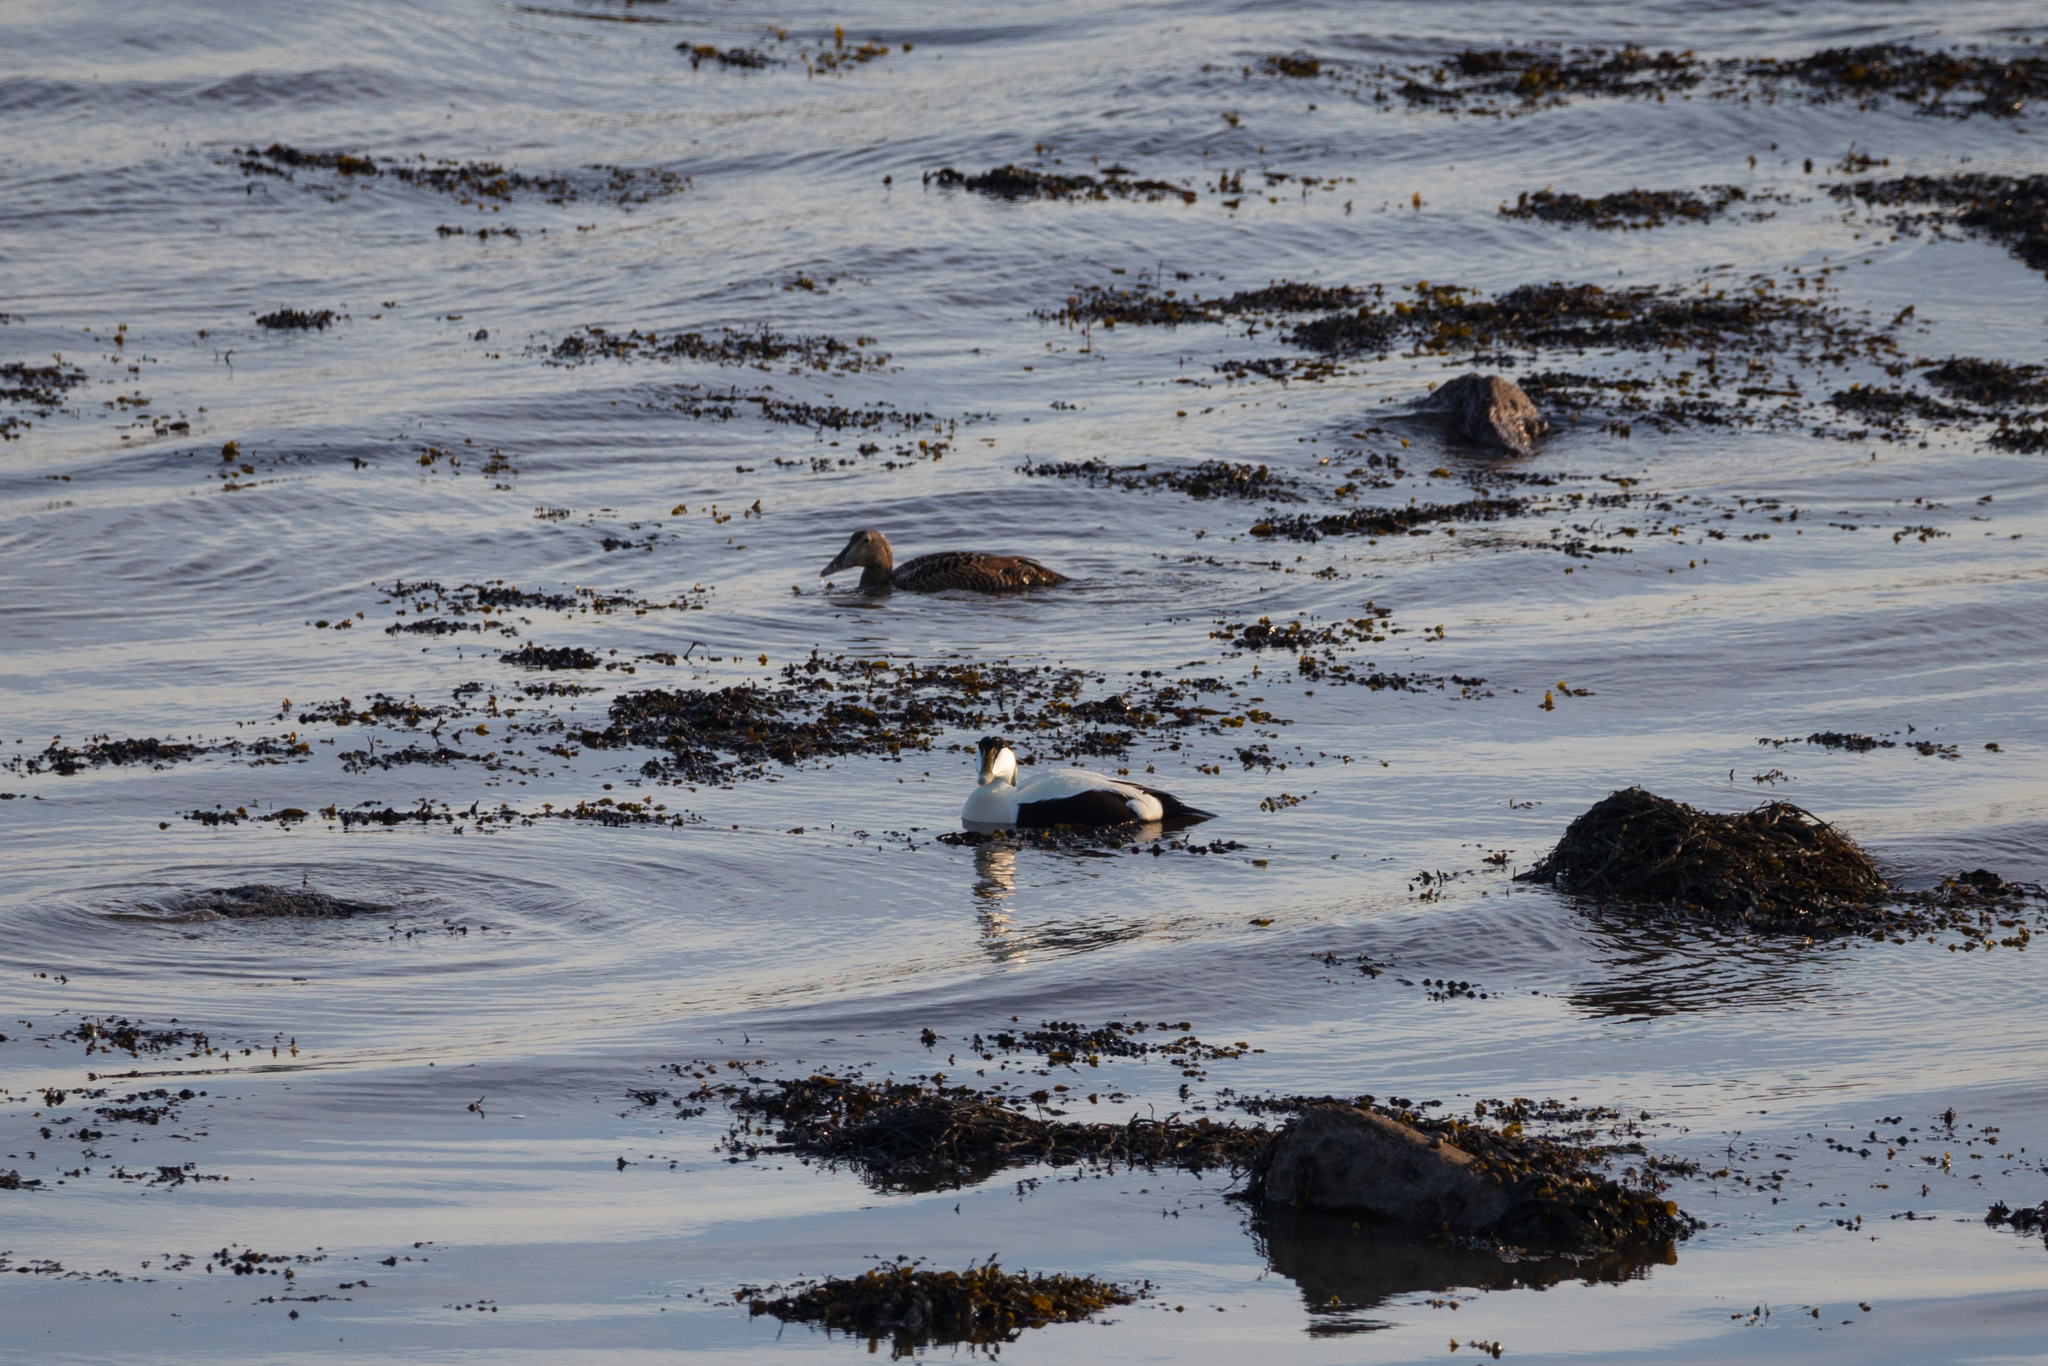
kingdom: Animalia
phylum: Chordata
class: Aves
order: Anseriformes
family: Anatidae
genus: Somateria
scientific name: Somateria mollissima
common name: Common eider
